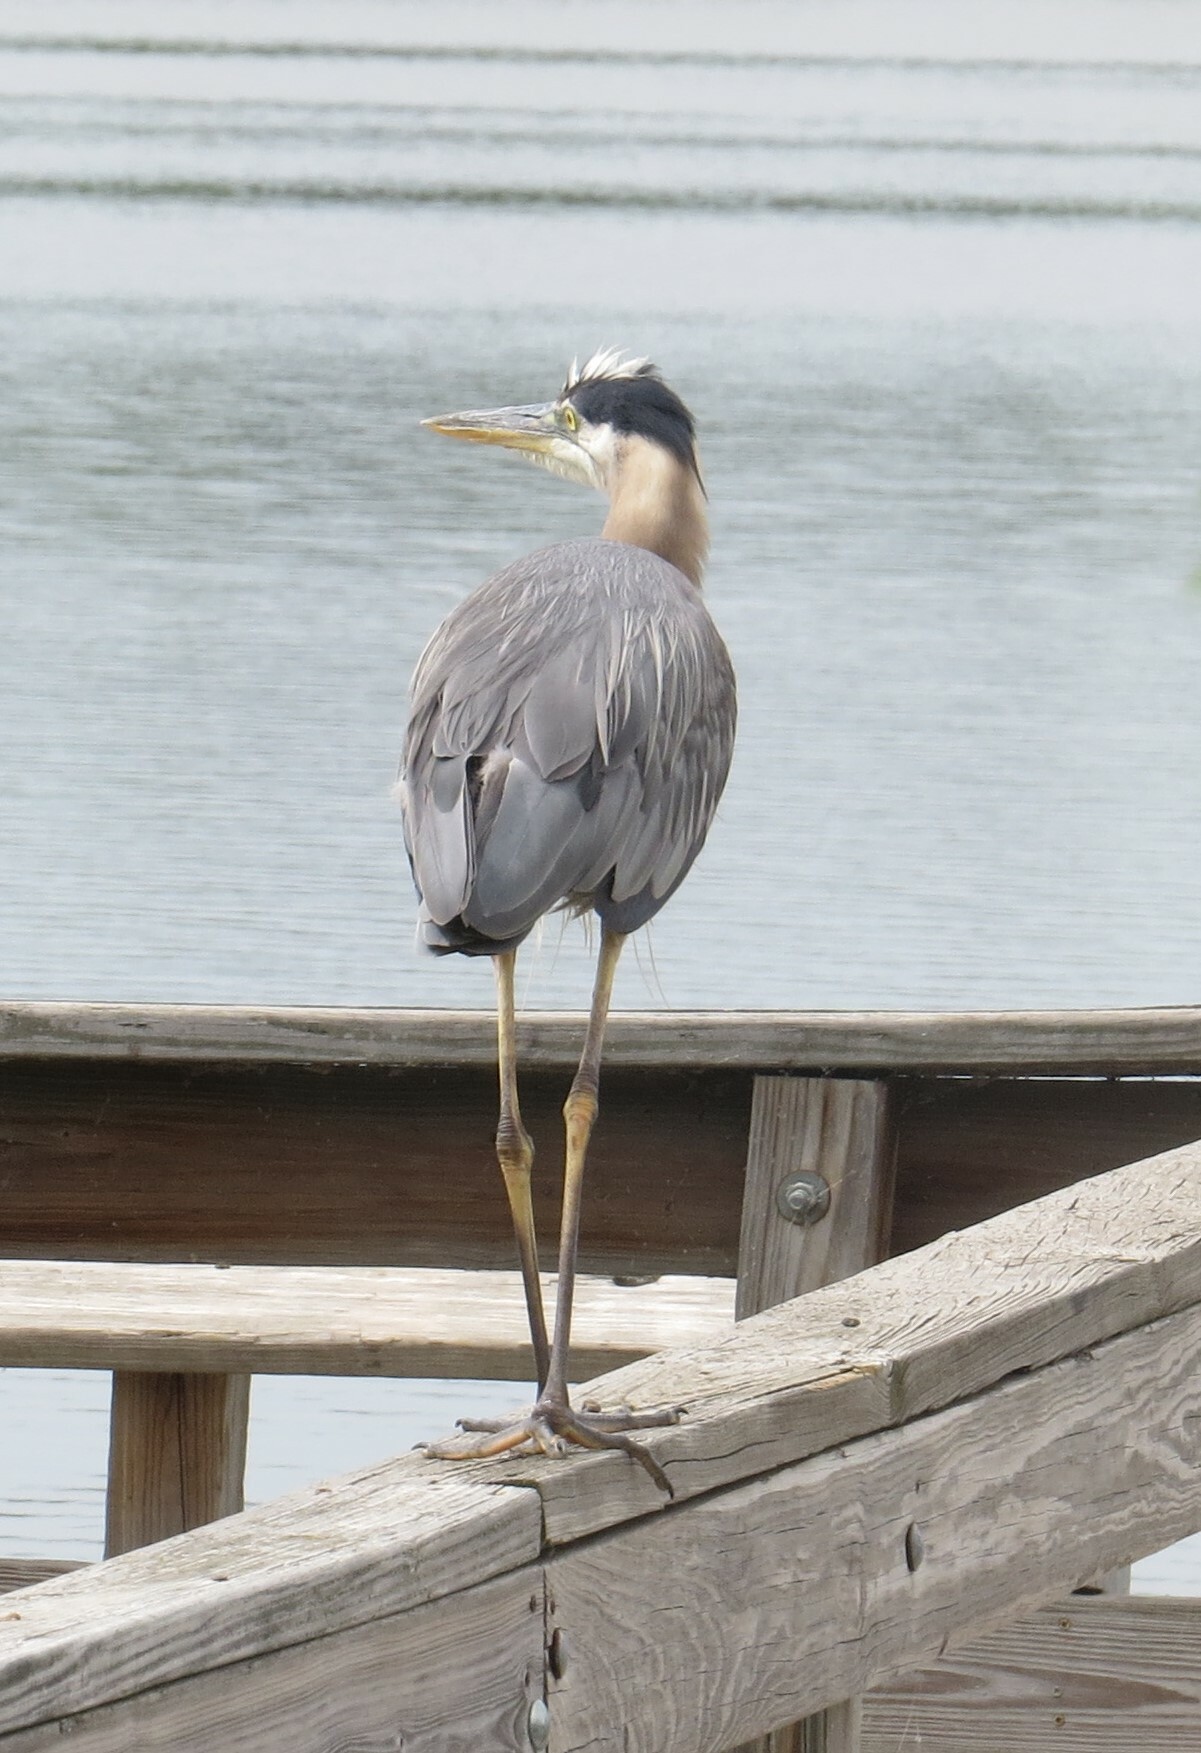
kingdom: Animalia
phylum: Chordata
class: Aves
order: Pelecaniformes
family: Ardeidae
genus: Ardea
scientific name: Ardea herodias
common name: Great blue heron
